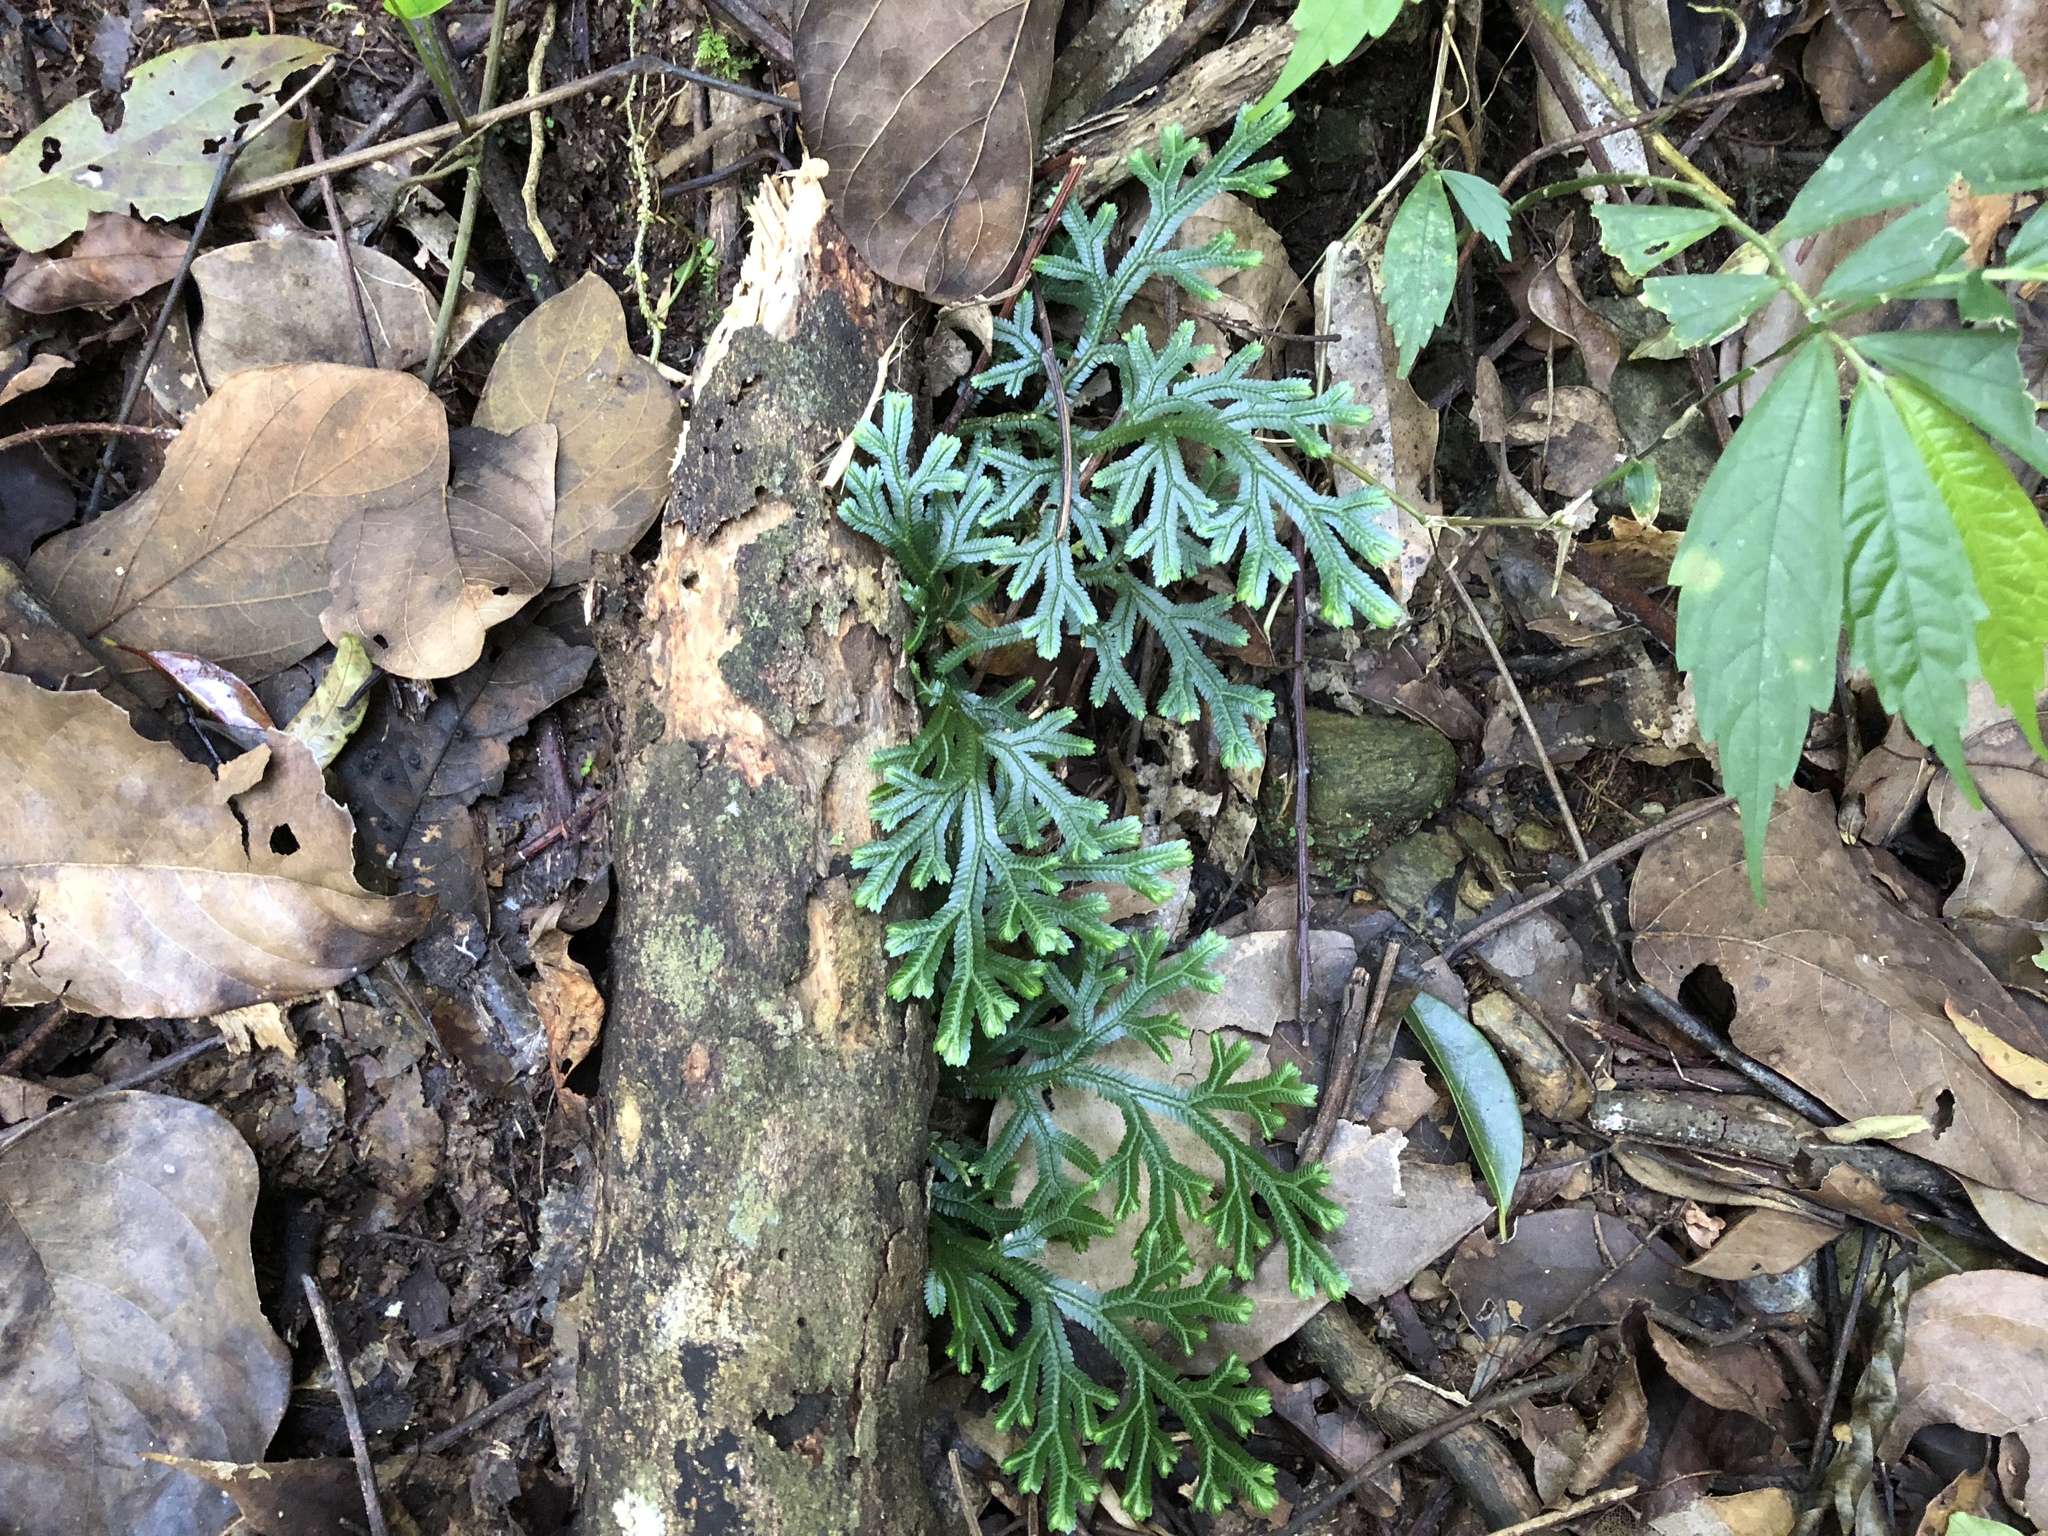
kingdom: Plantae
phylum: Tracheophyta
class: Lycopodiopsida
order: Selaginellales
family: Selaginellaceae
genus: Selaginella
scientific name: Selaginella doederleinii
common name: Greater selaginella
